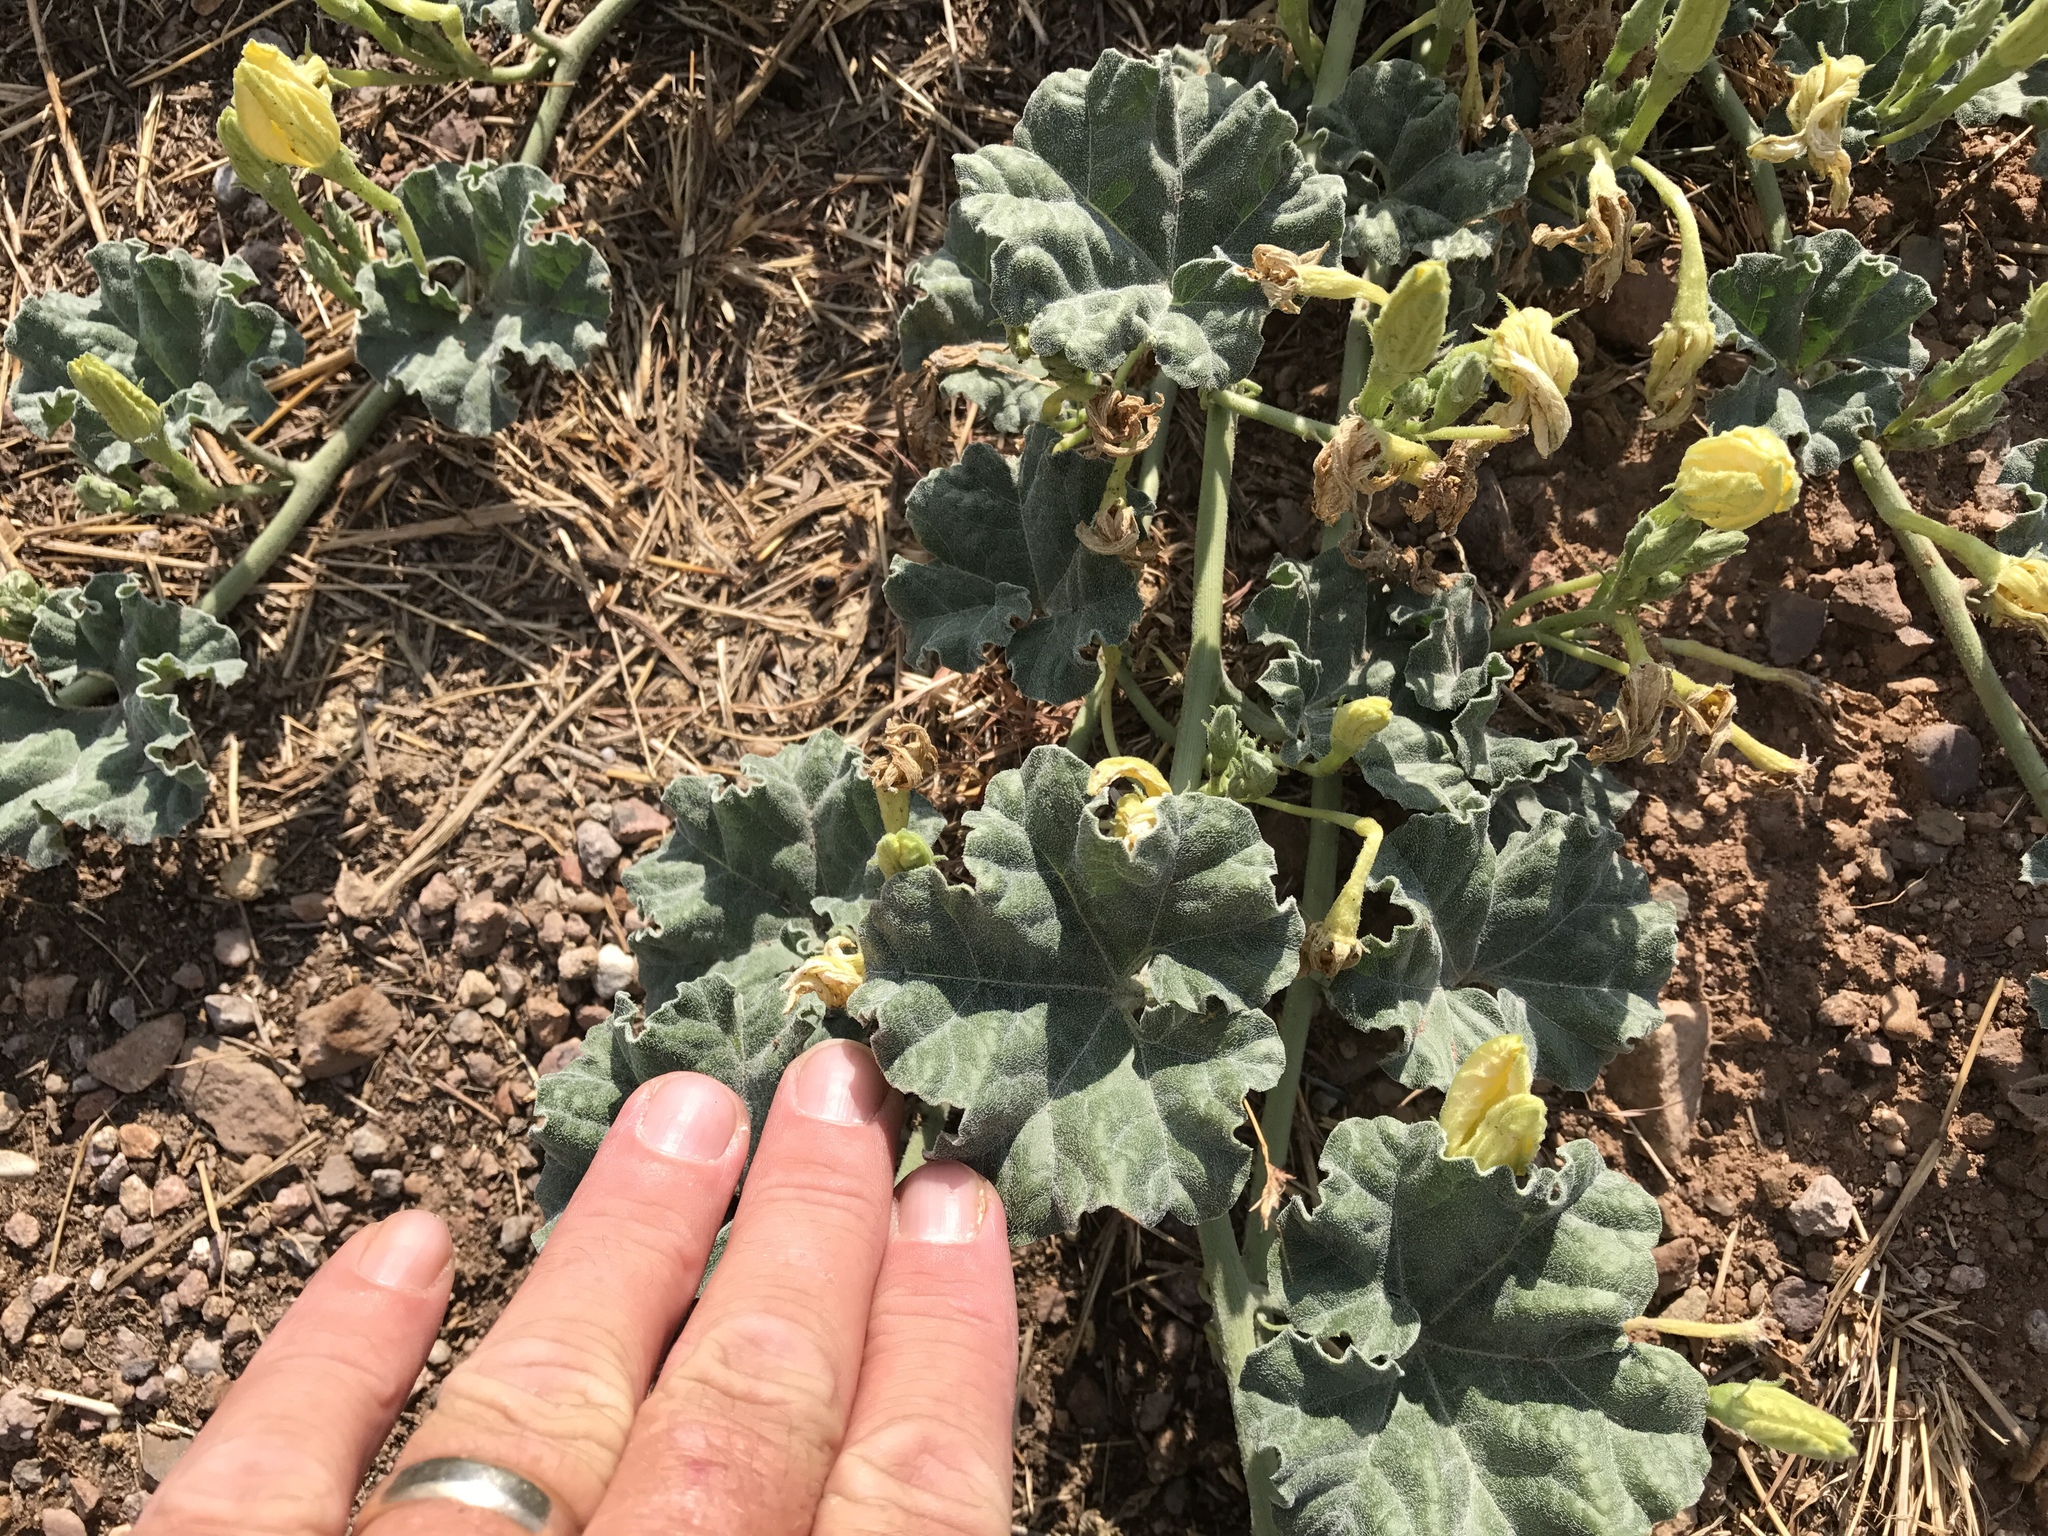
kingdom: Plantae
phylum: Tracheophyta
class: Magnoliopsida
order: Cucurbitales
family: Cucurbitaceae
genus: Apodanthera
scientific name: Apodanthera undulata
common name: Melon-loco
